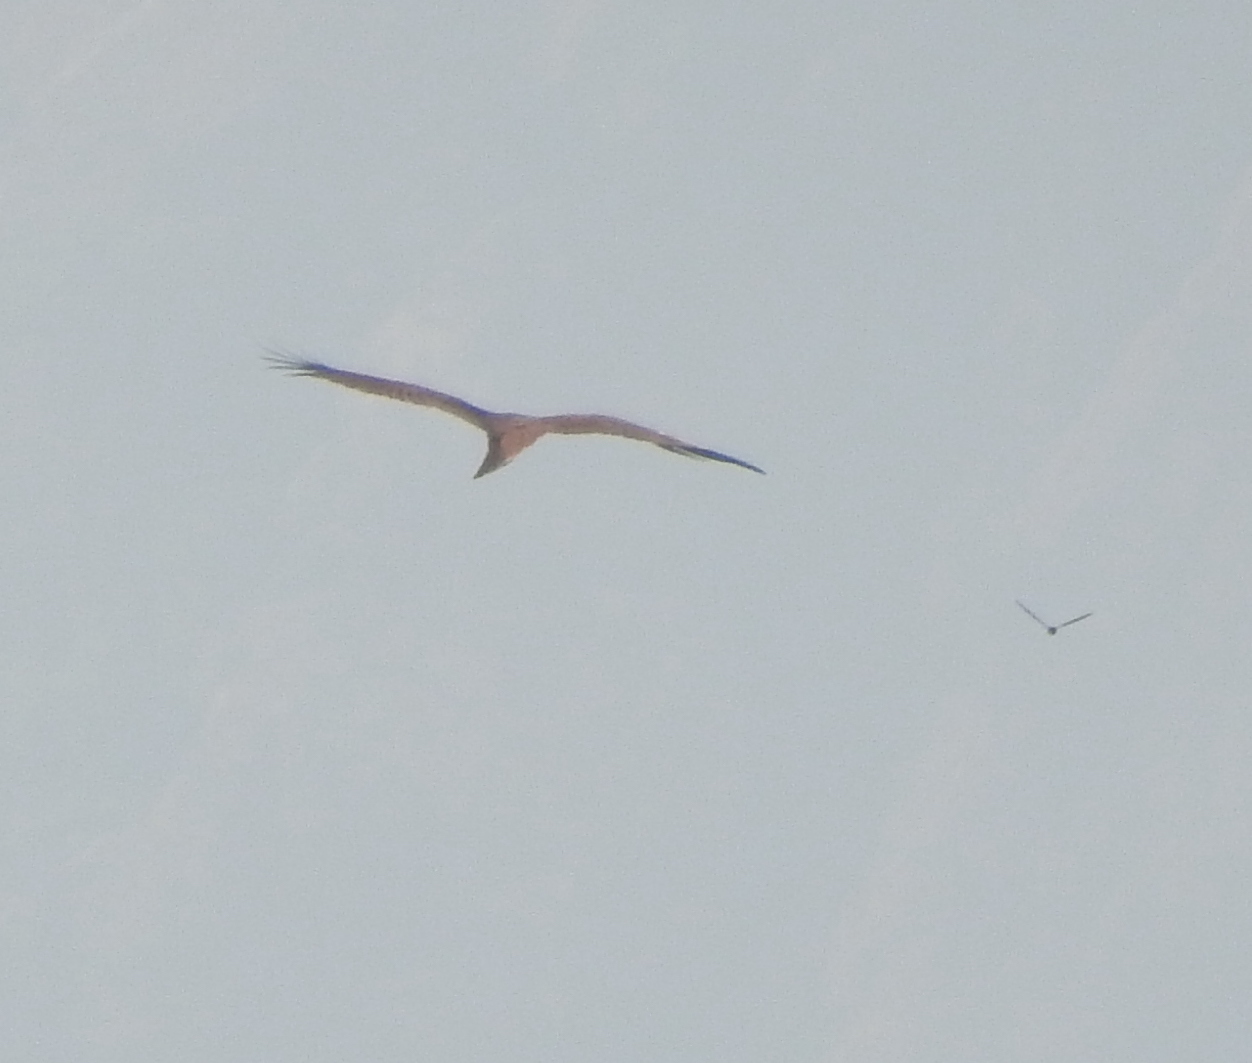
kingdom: Animalia
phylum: Chordata
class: Aves
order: Accipitriformes
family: Accipitridae
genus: Haliastur
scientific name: Haliastur indus
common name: Brahminy kite
